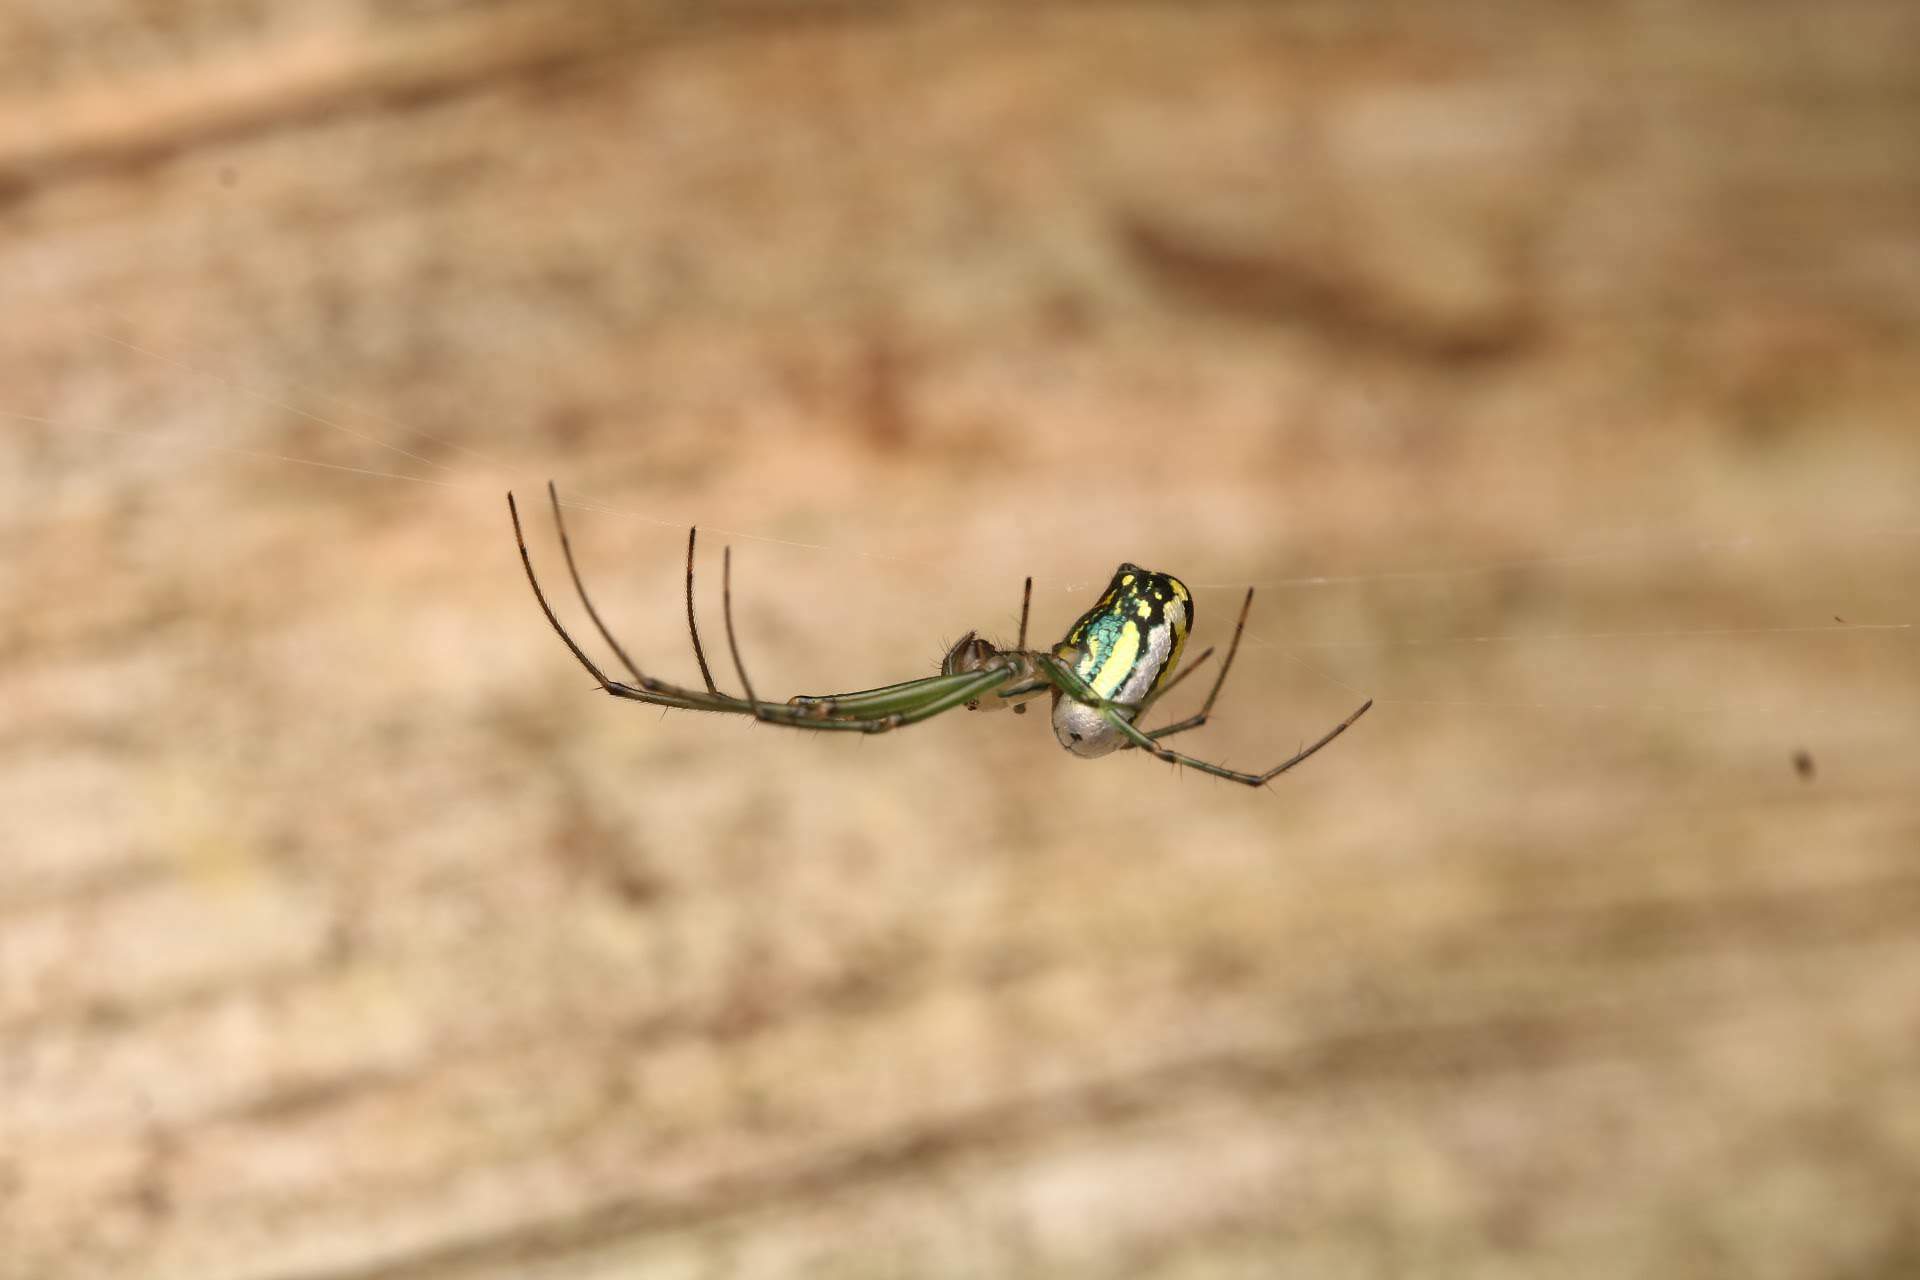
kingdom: Animalia
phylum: Arthropoda
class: Arachnida
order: Araneae
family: Tetragnathidae
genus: Leucauge
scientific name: Leucauge venusta
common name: Longjawed orb weavers
